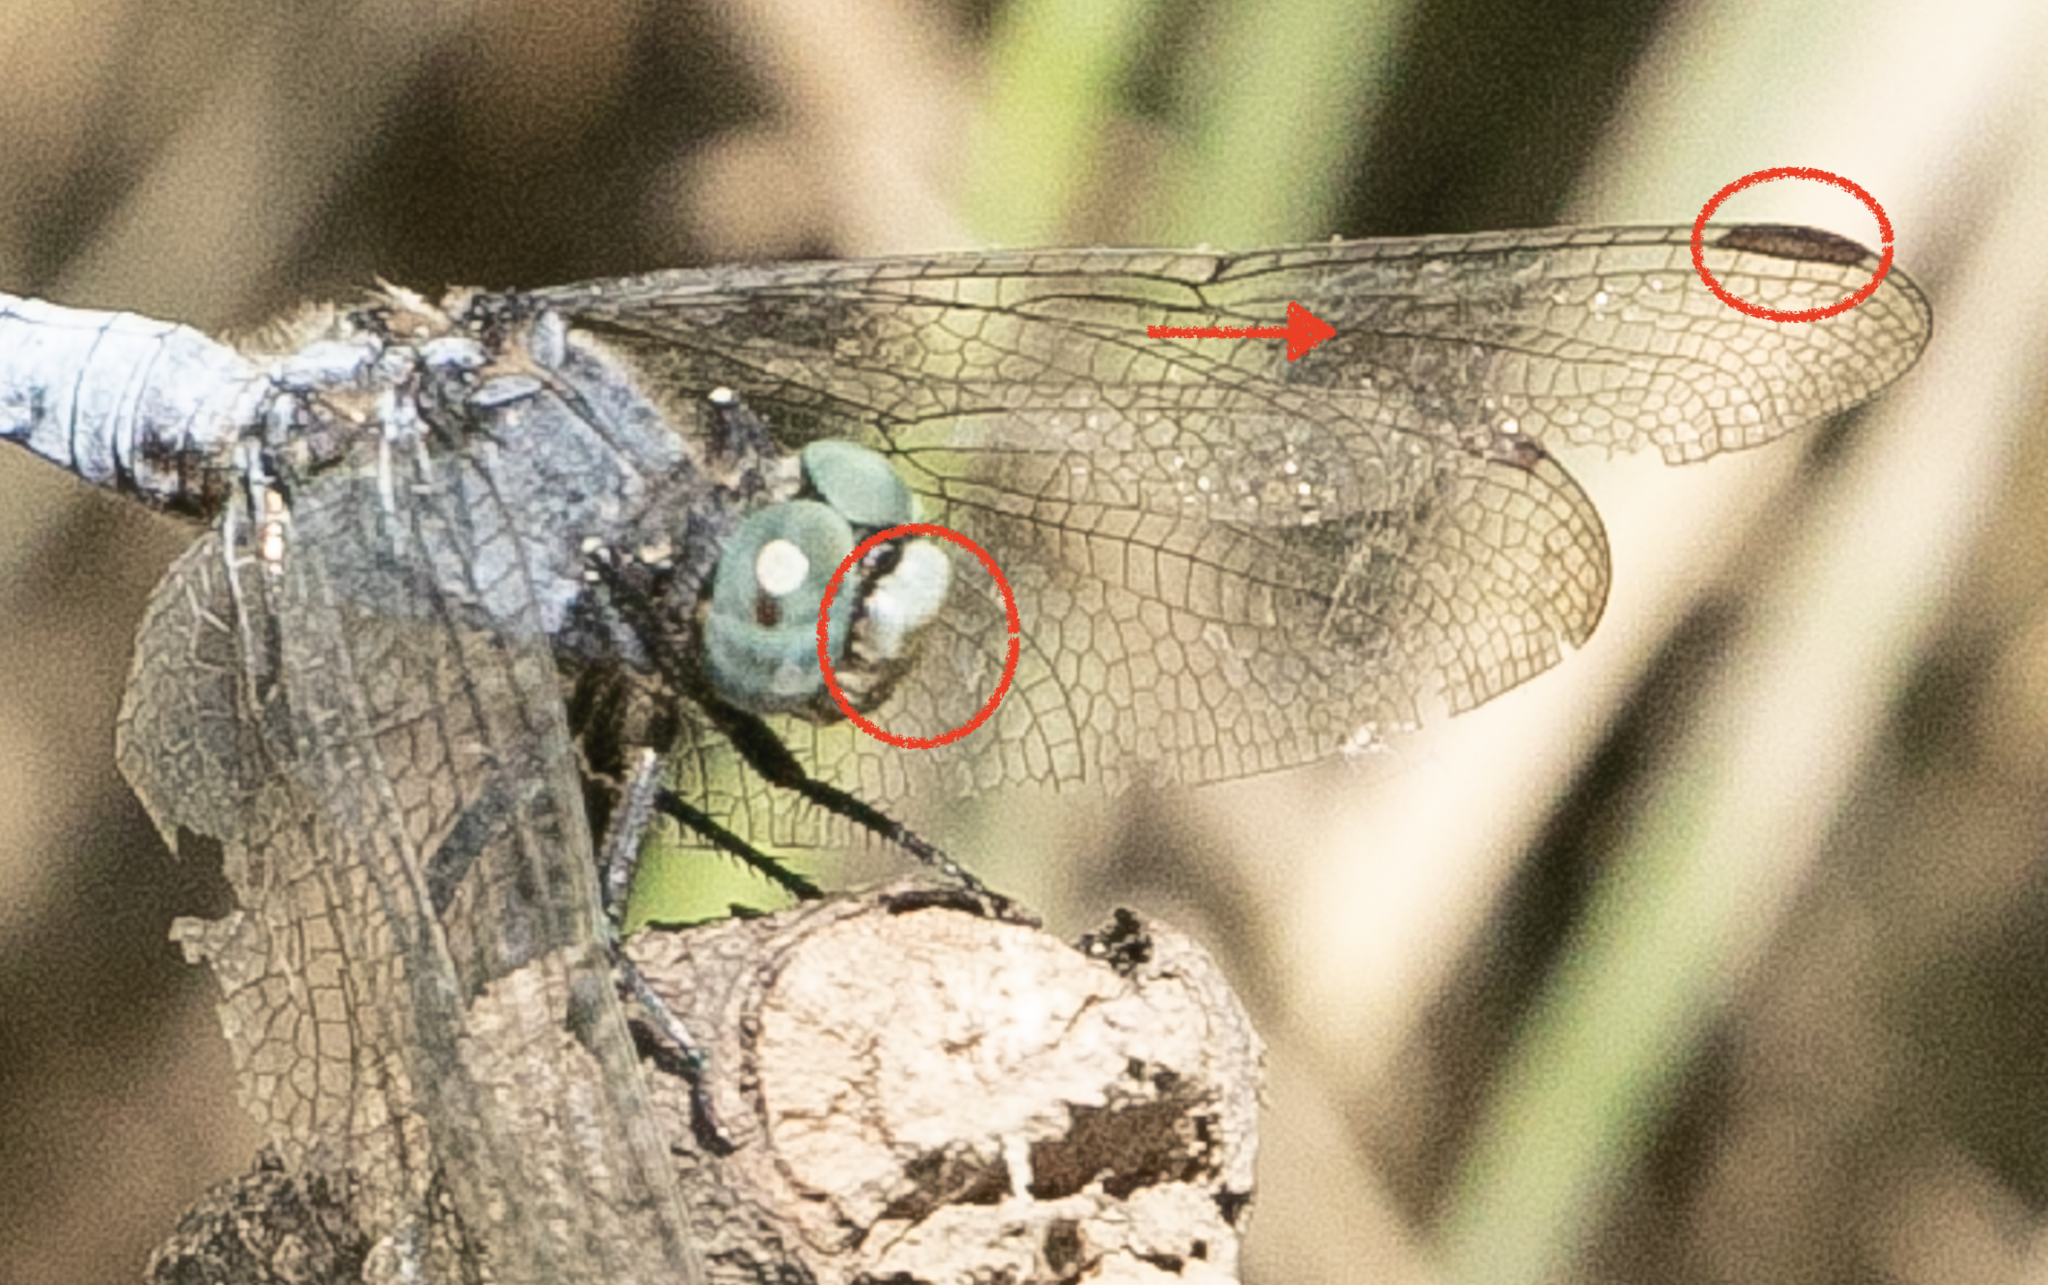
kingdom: Animalia
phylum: Arthropoda
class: Insecta
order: Odonata
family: Libellulidae
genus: Orthetrum
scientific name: Orthetrum coerulescens
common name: Keeled skimmer
